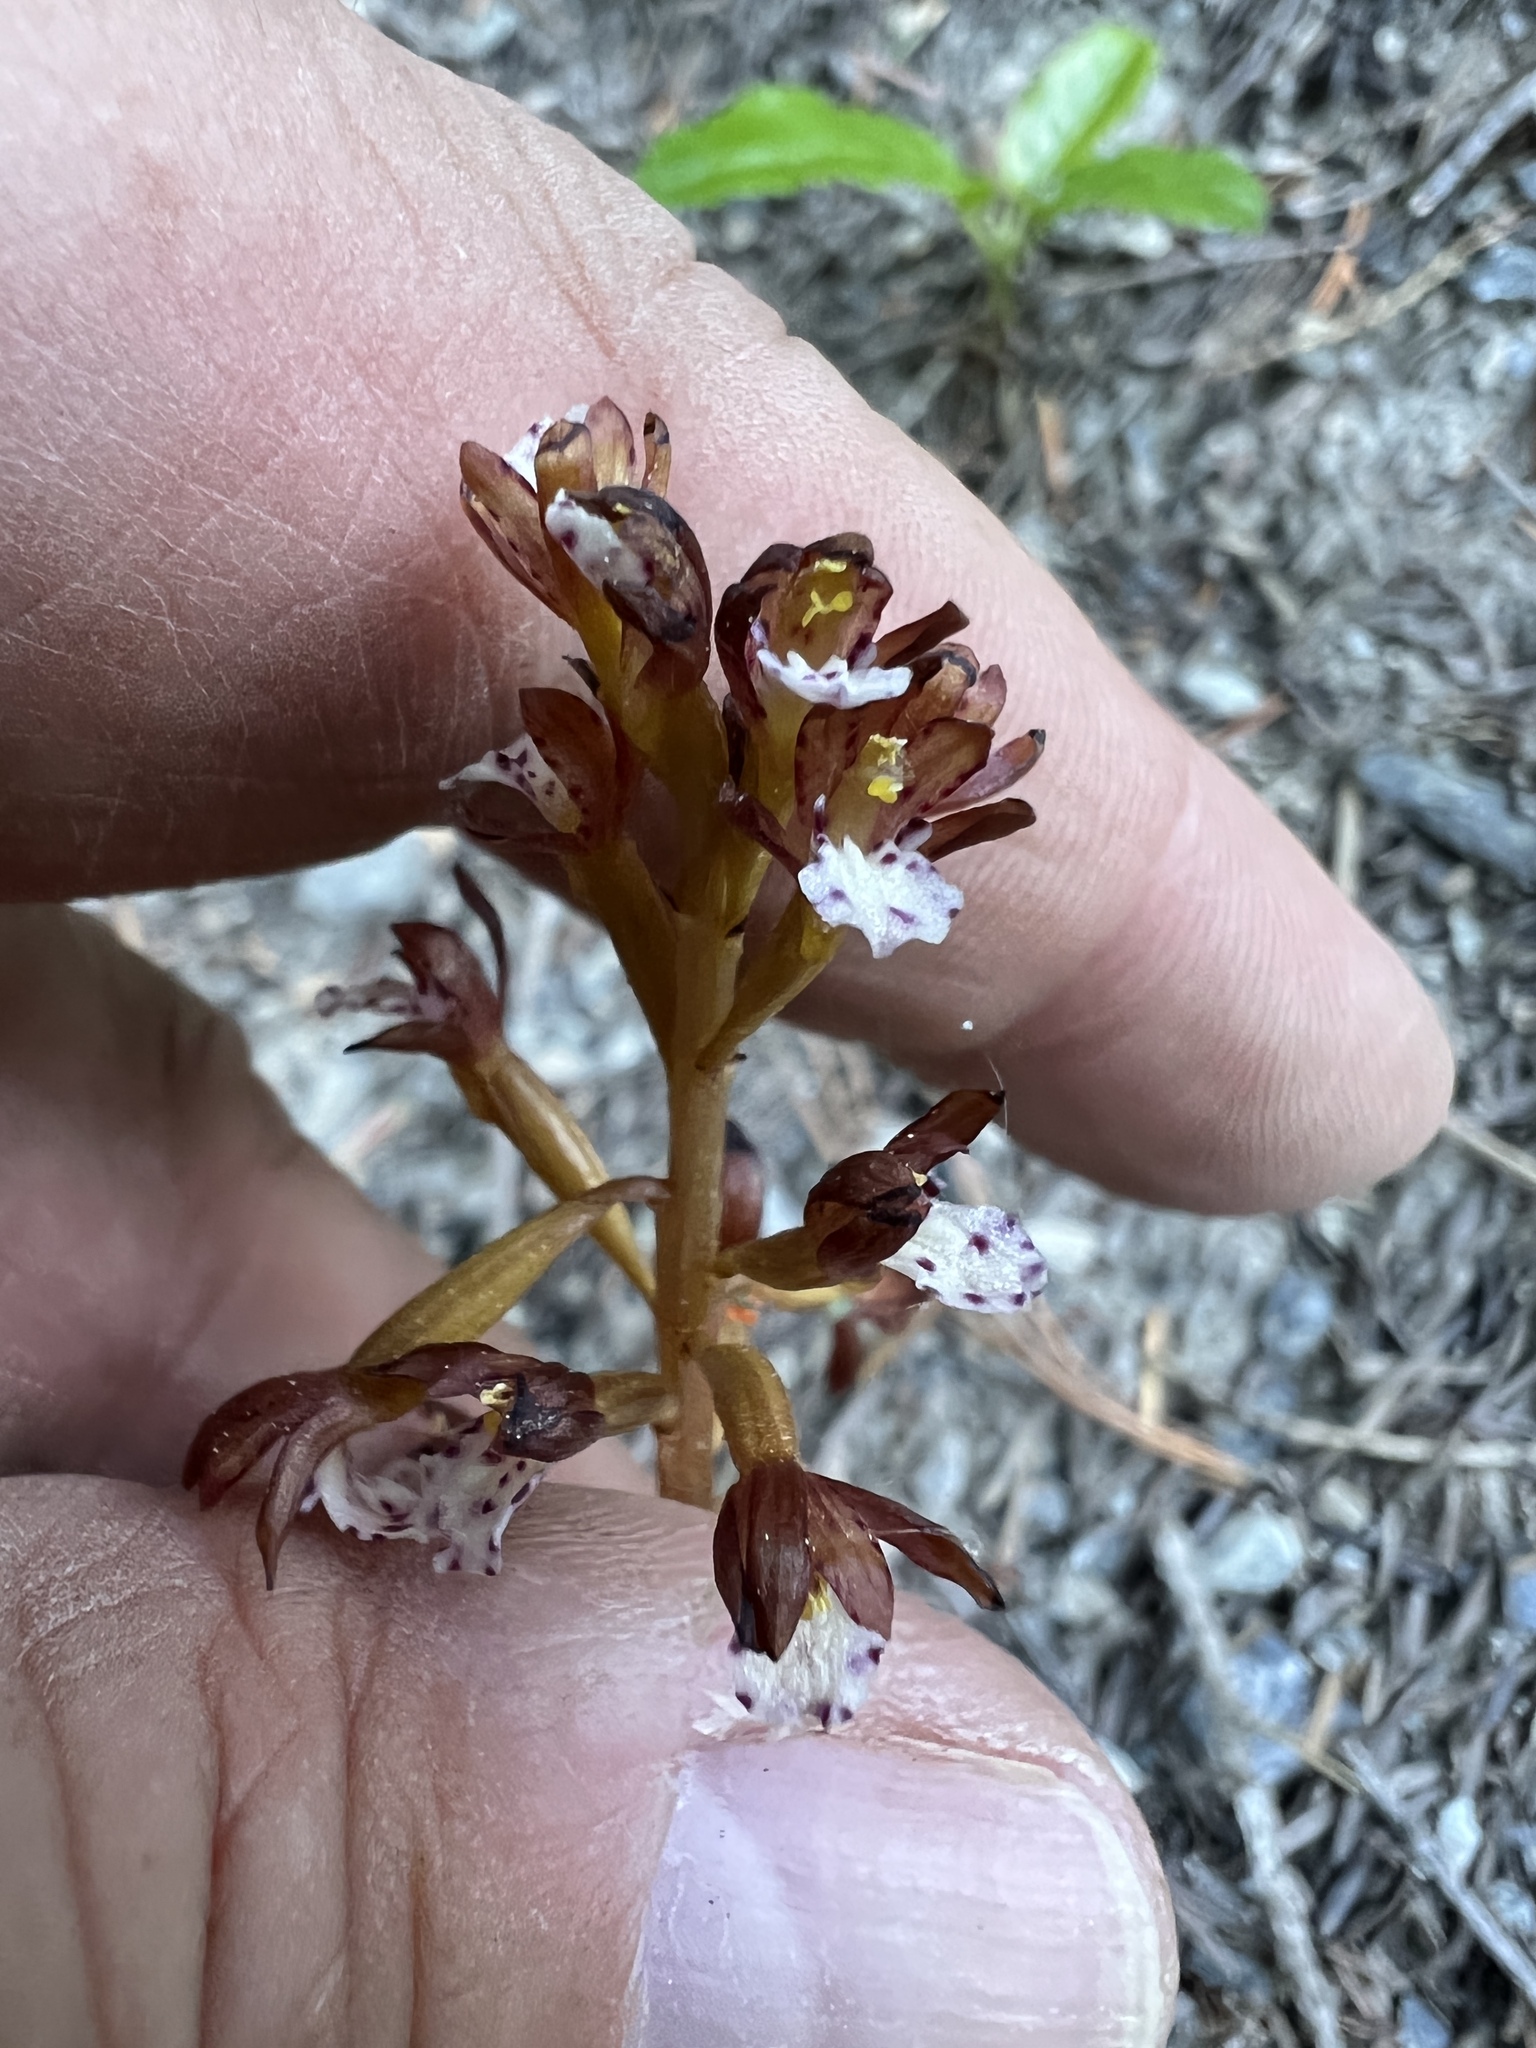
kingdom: Plantae
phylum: Tracheophyta
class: Liliopsida
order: Asparagales
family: Orchidaceae
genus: Corallorhiza
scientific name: Corallorhiza maculata
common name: Spotted coralroot
